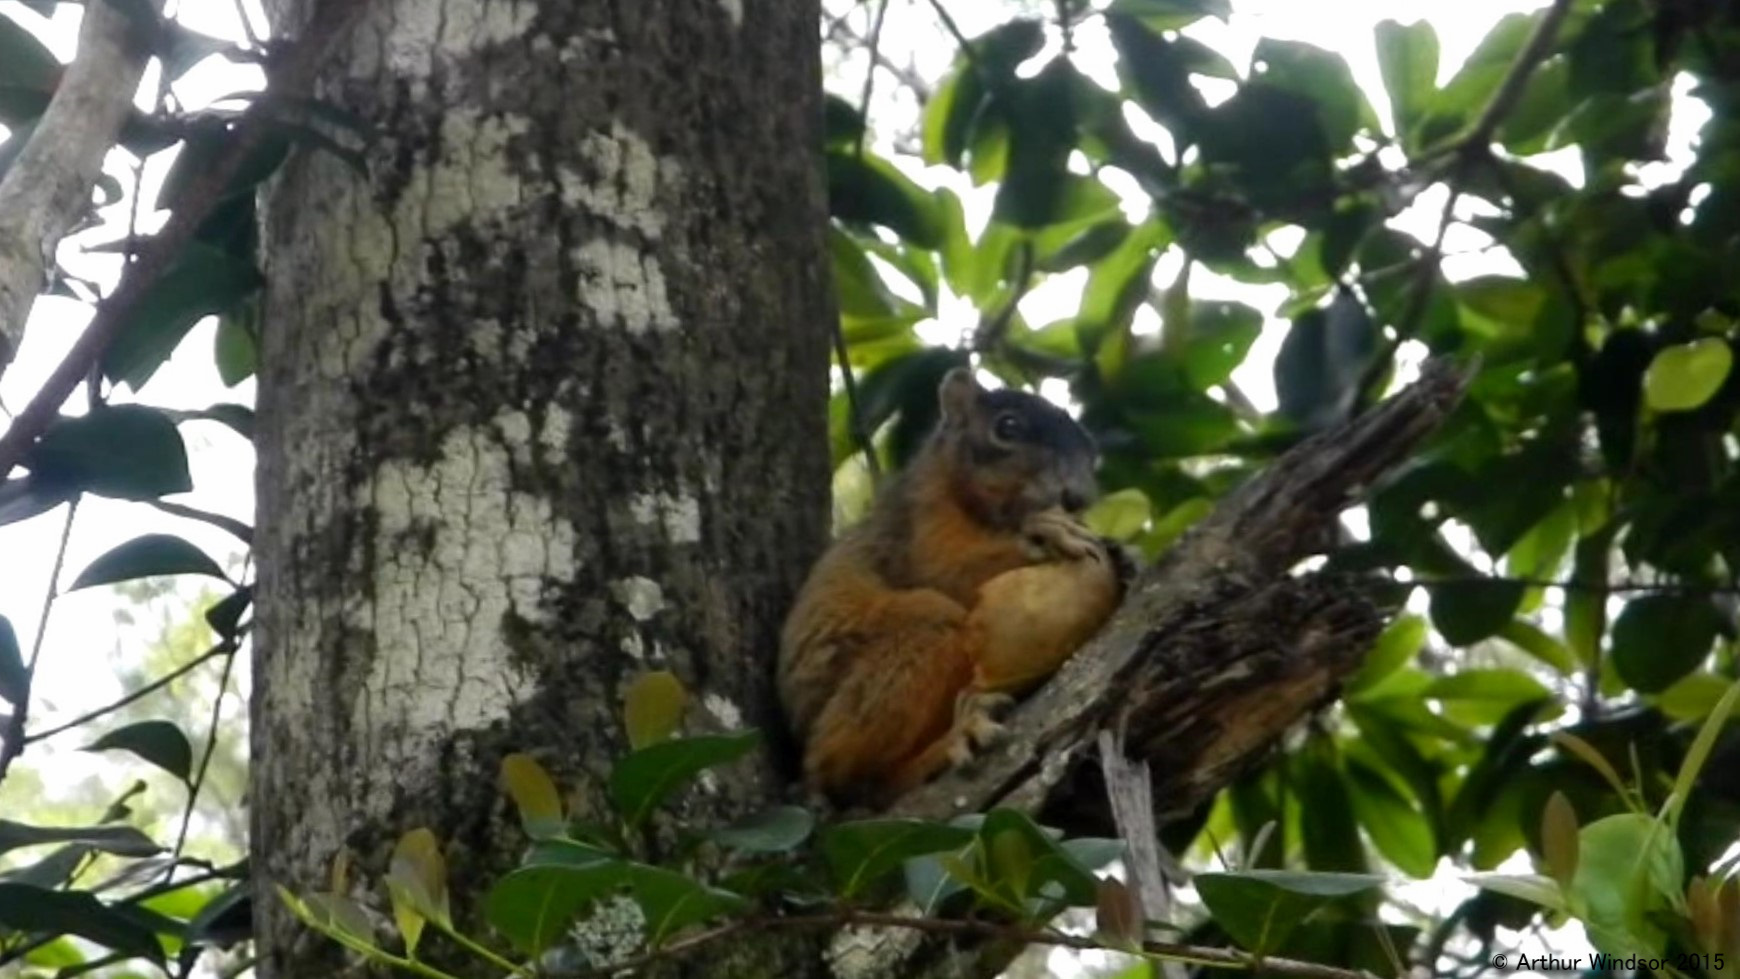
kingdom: Animalia
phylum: Chordata
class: Mammalia
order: Rodentia
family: Sciuridae
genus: Sciurus
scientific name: Sciurus niger
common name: Fox squirrel
